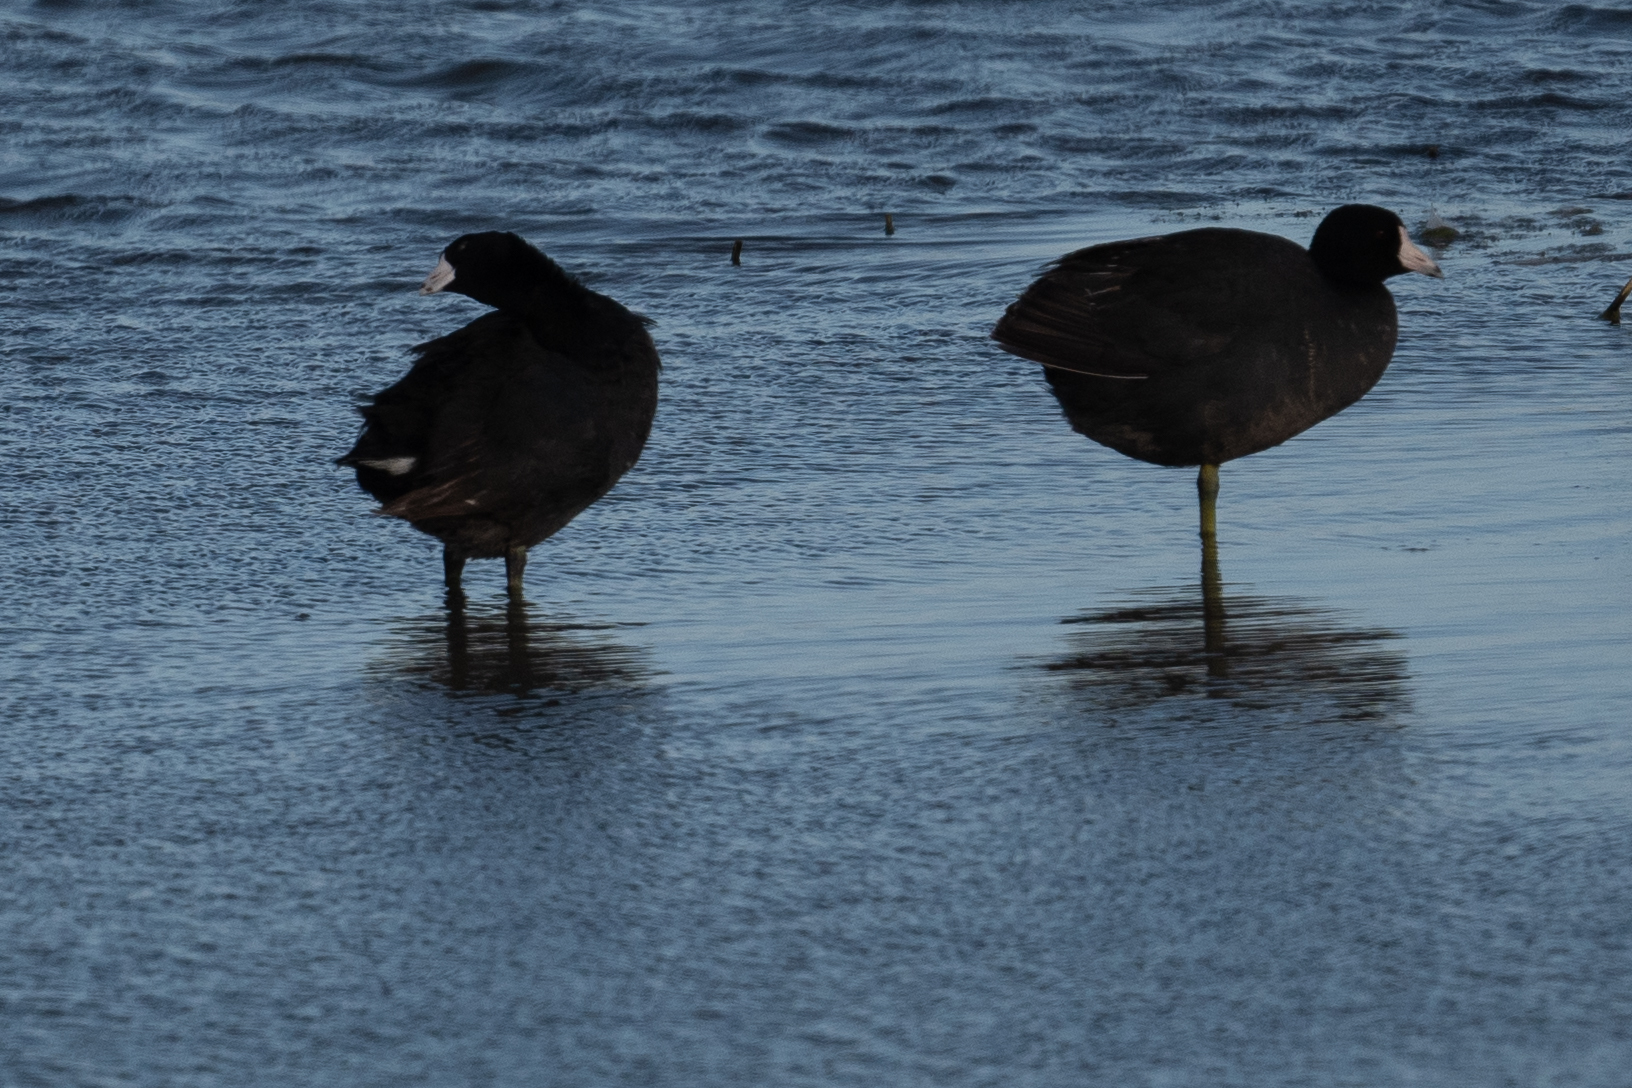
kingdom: Animalia
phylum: Chordata
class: Aves
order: Gruiformes
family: Rallidae
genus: Fulica
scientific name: Fulica americana
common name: American coot
